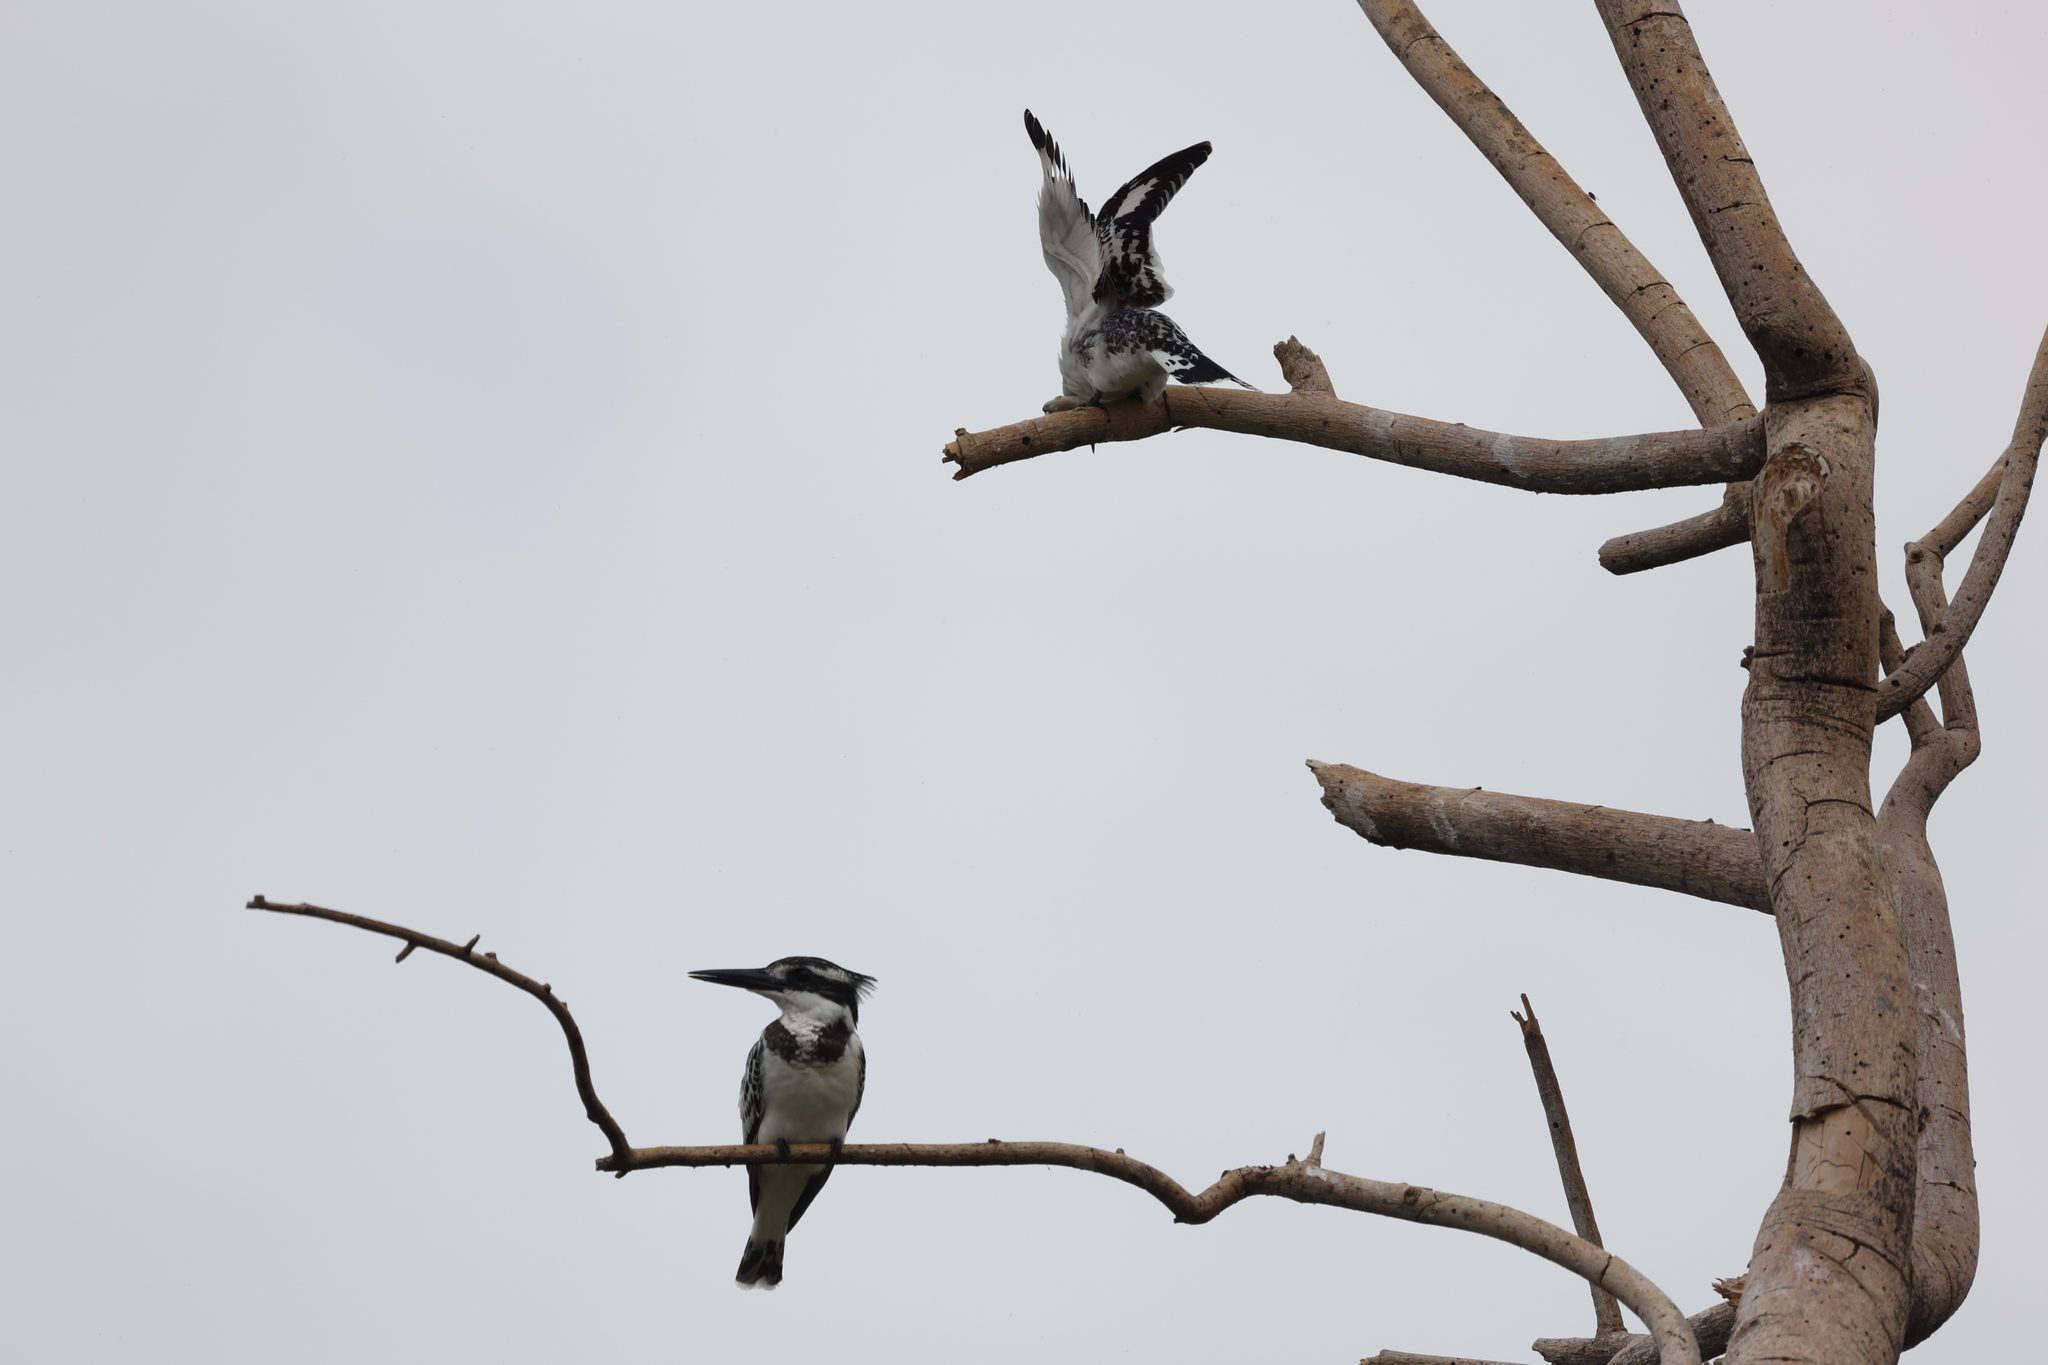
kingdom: Animalia
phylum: Chordata
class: Aves
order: Coraciiformes
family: Alcedinidae
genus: Ceryle
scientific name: Ceryle rudis
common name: Pied kingfisher
